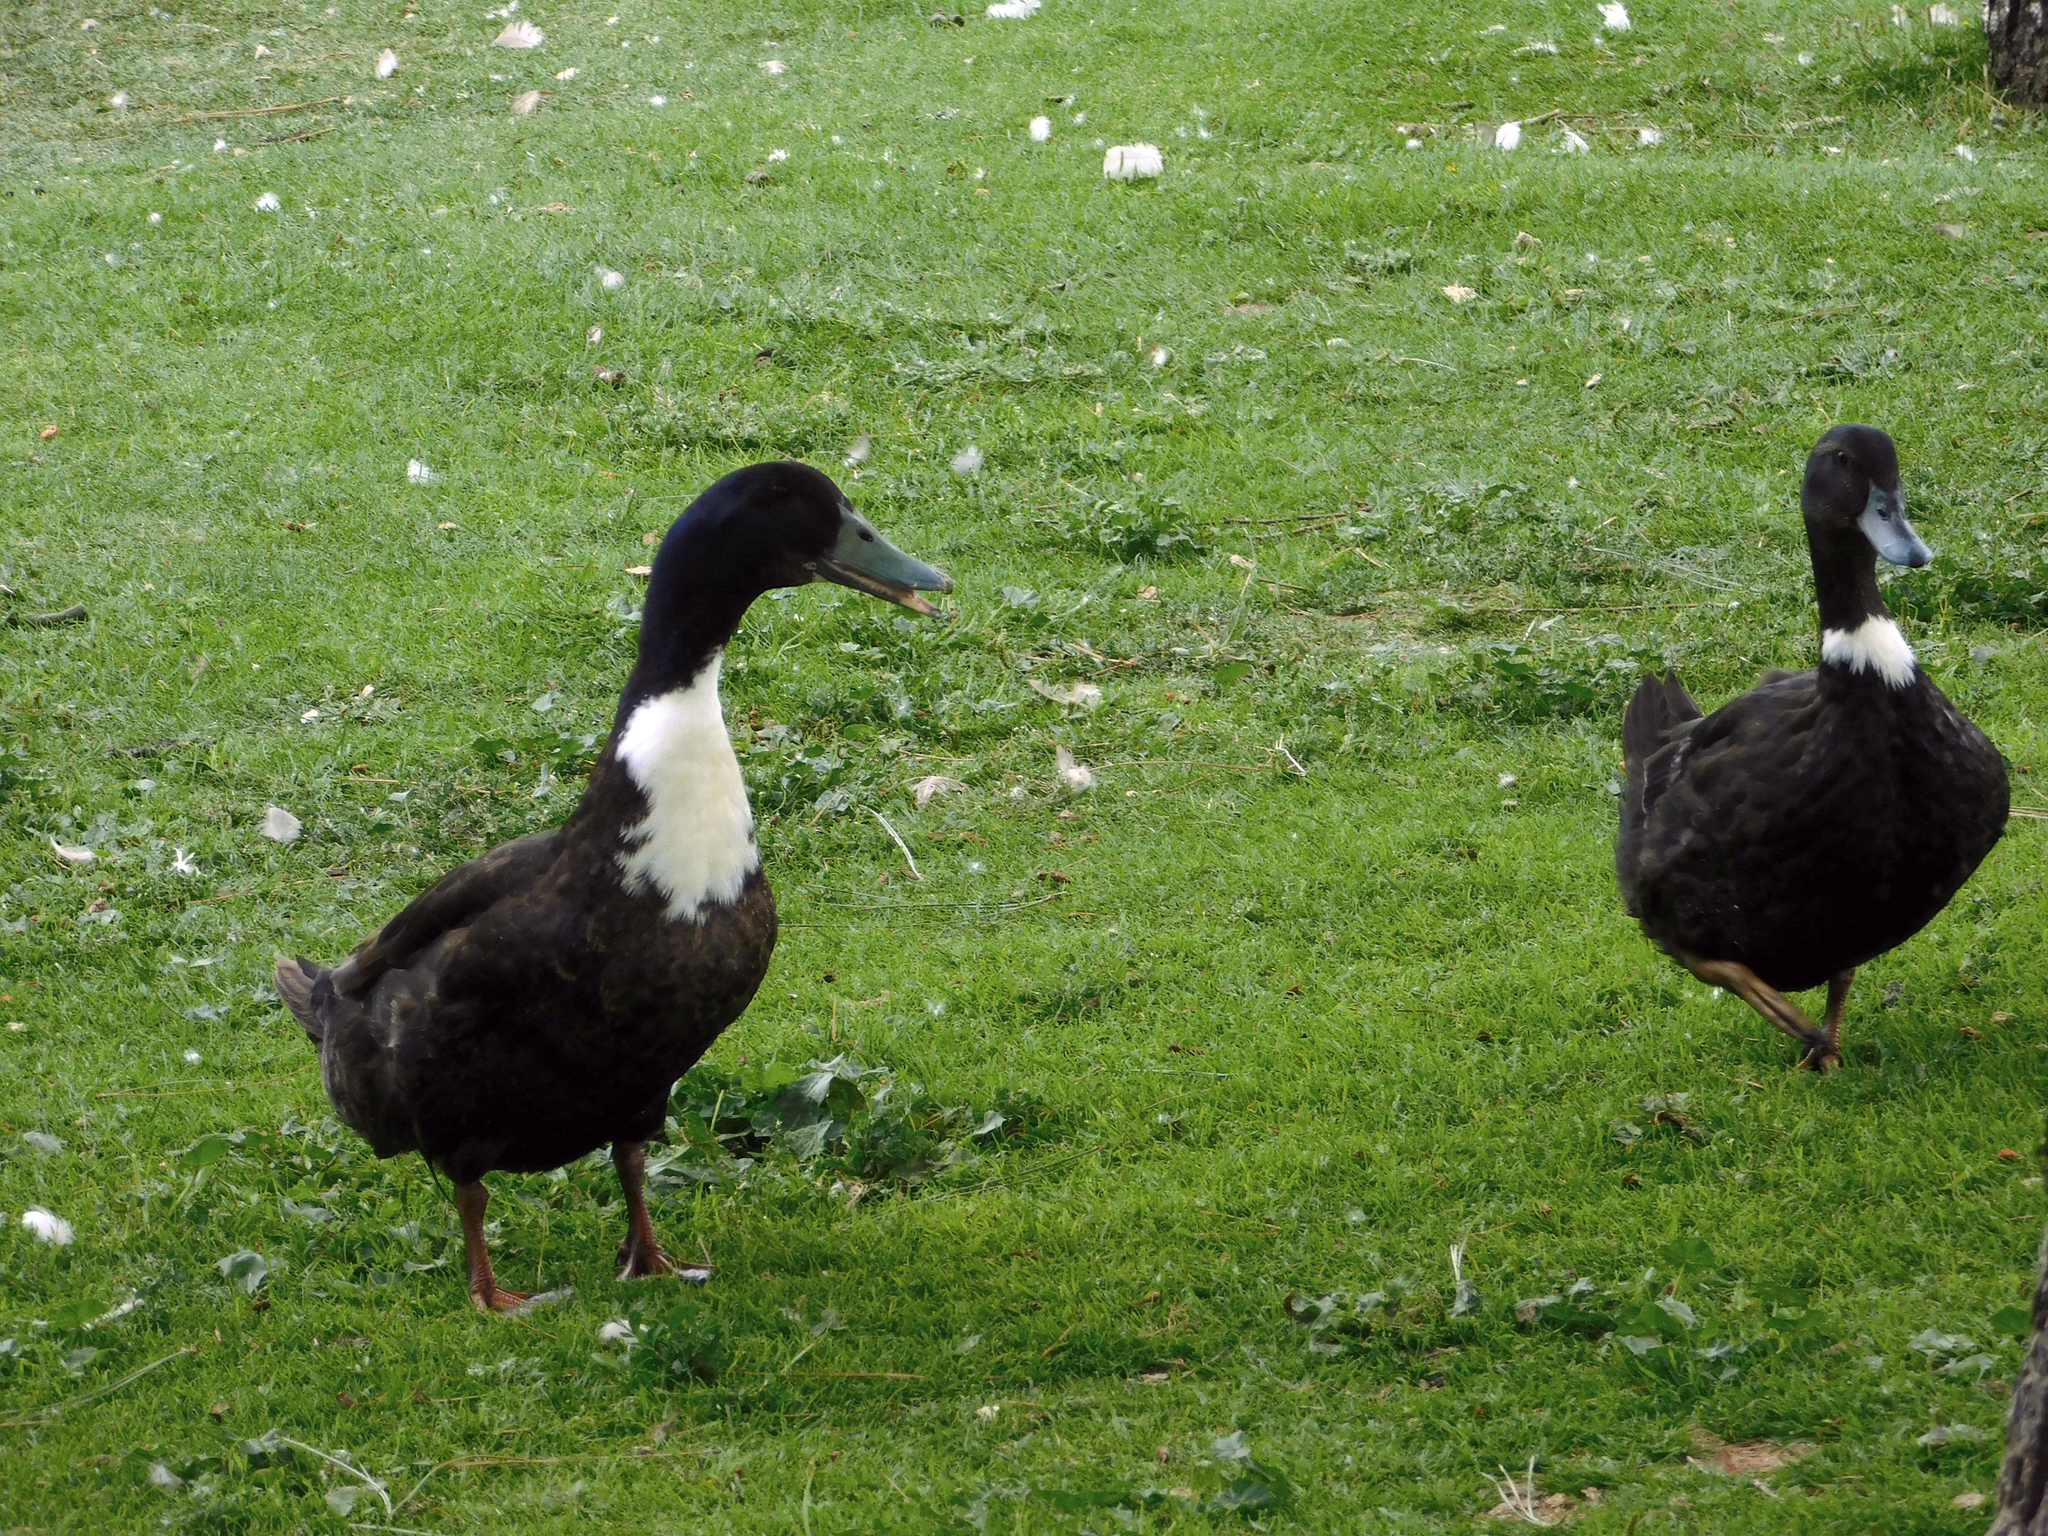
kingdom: Animalia
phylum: Chordata
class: Aves
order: Anseriformes
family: Anatidae
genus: Anas
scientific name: Anas platyrhynchos
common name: Mallard
